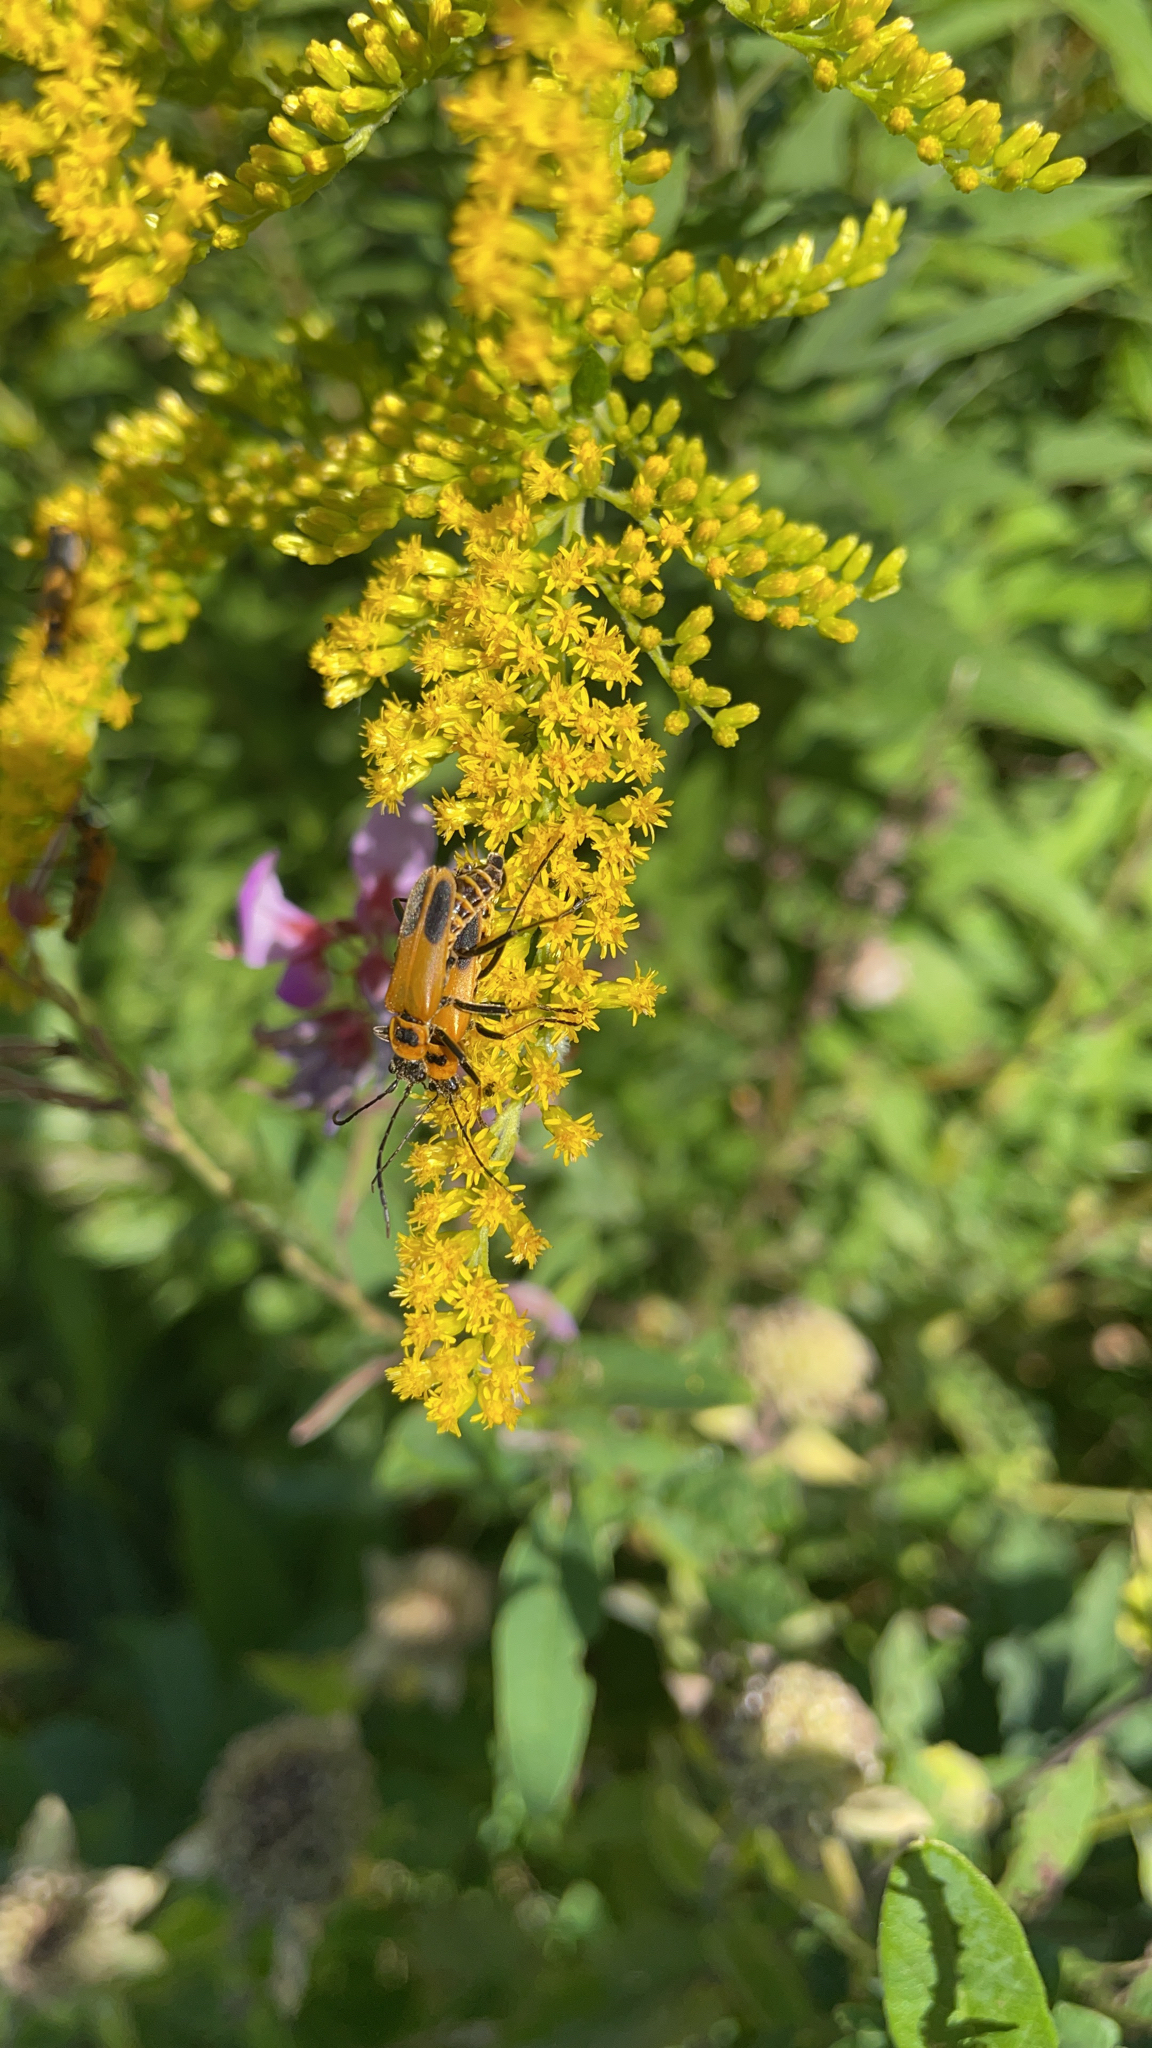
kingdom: Animalia
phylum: Arthropoda
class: Insecta
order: Coleoptera
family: Cantharidae
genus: Chauliognathus
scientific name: Chauliognathus pensylvanicus
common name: Goldenrod soldier beetle
